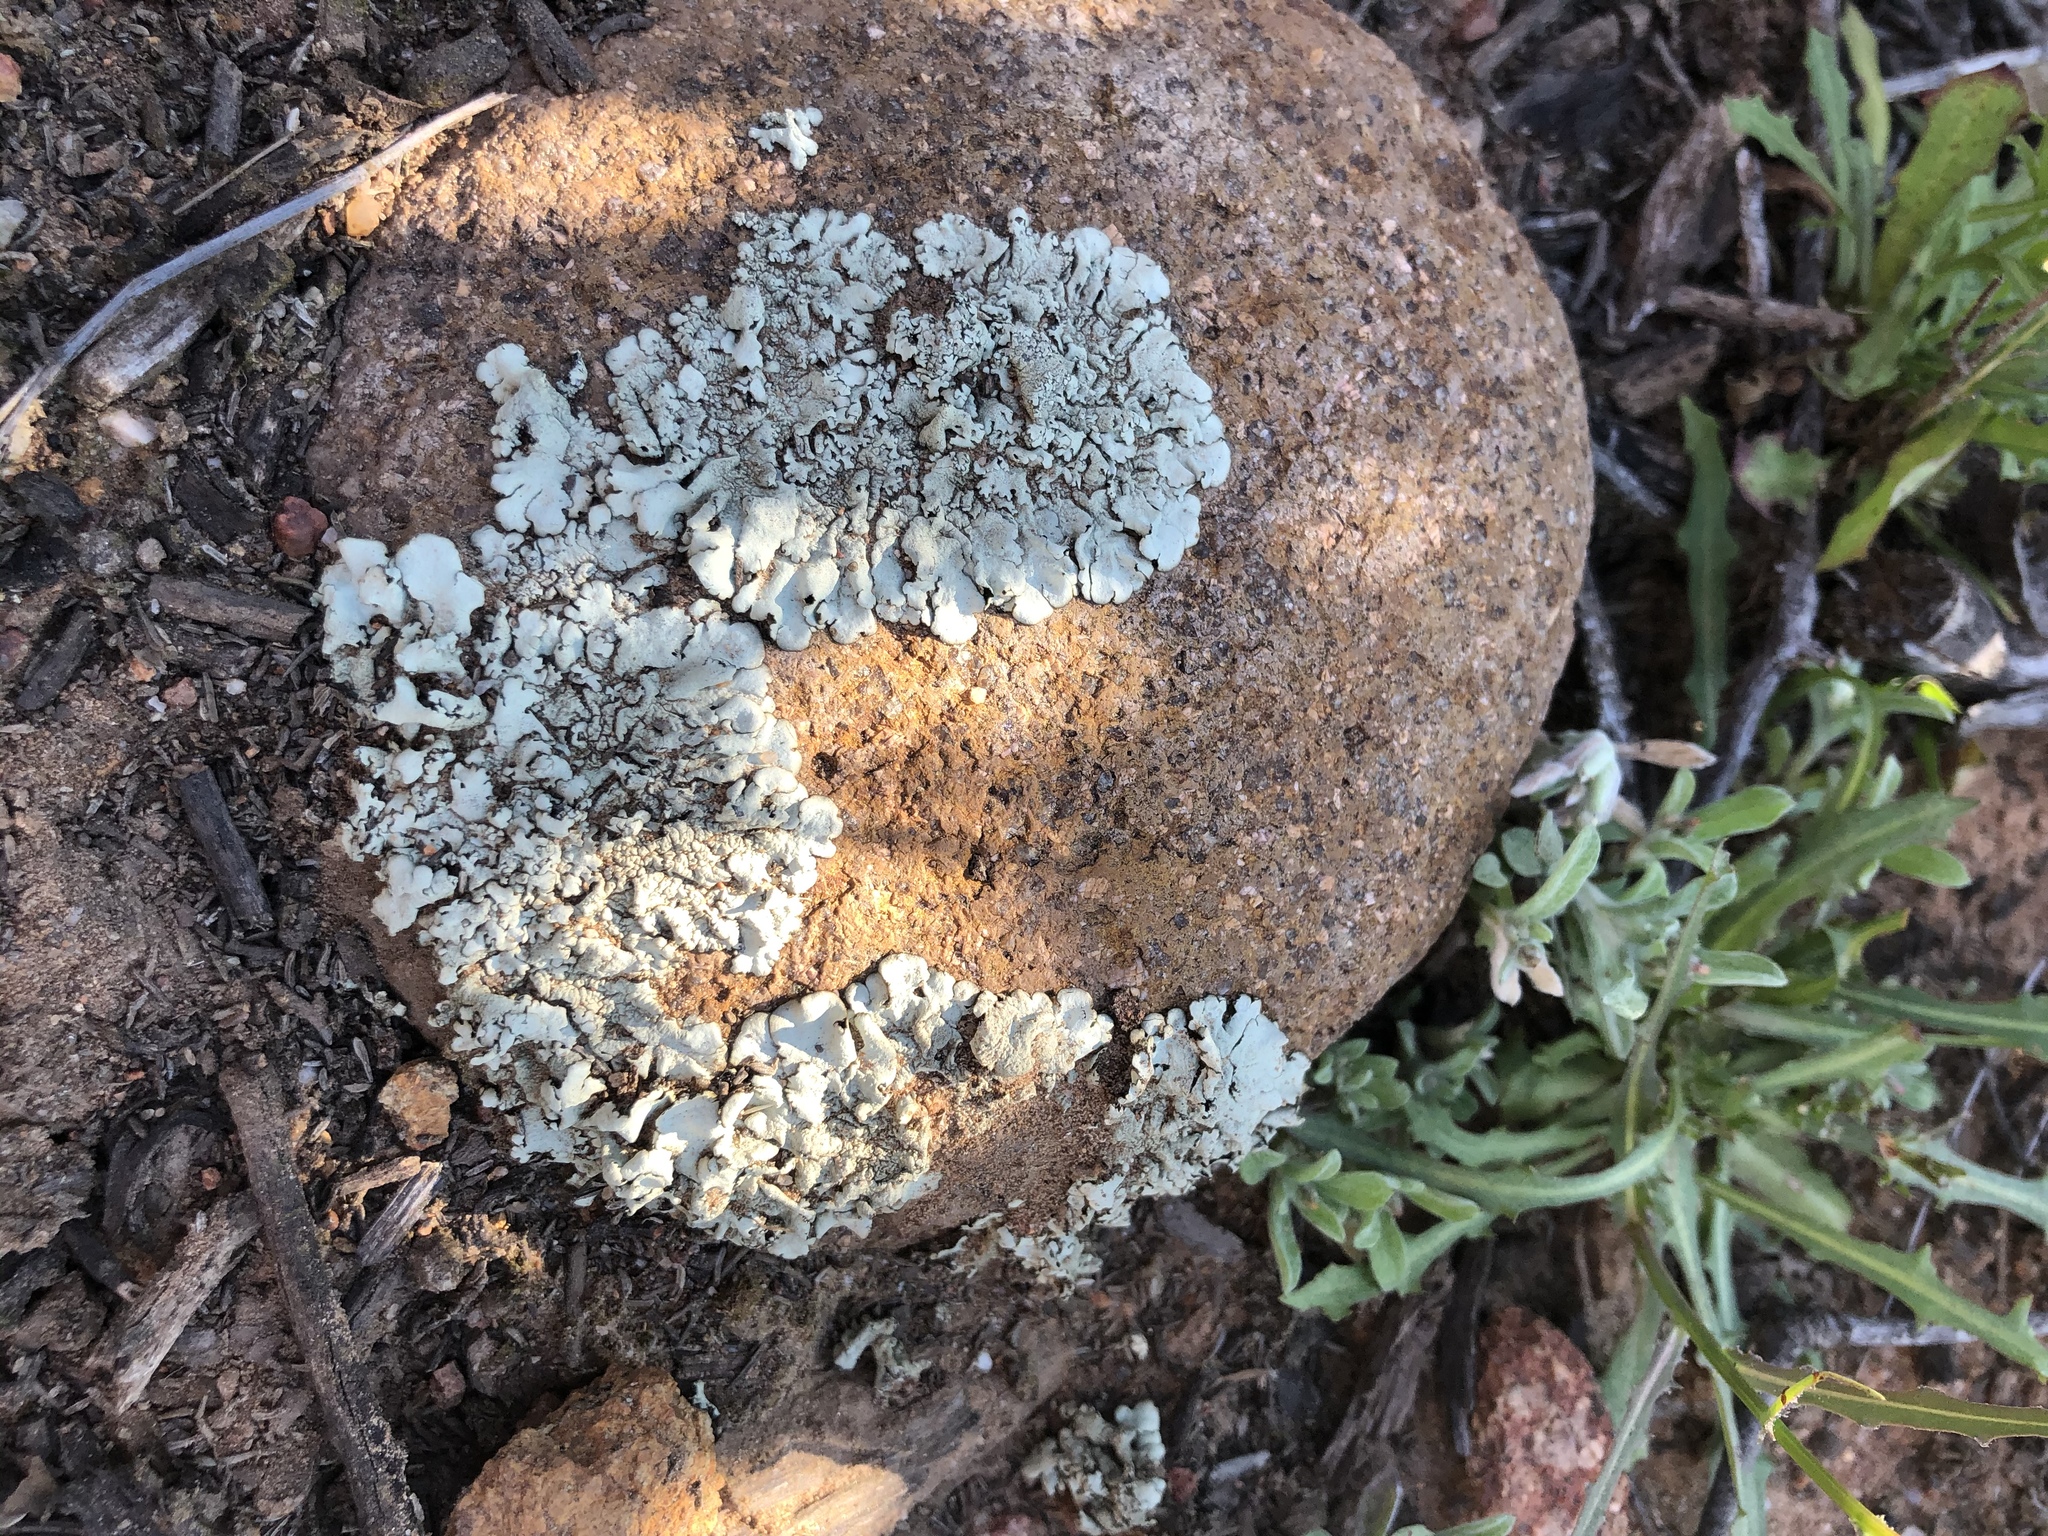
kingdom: Fungi
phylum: Ascomycota
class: Lecanoromycetes
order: Lecanorales
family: Parmeliaceae
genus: Xanthoparmelia
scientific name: Xanthoparmelia cumberlandia
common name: Cumberland rock shield
